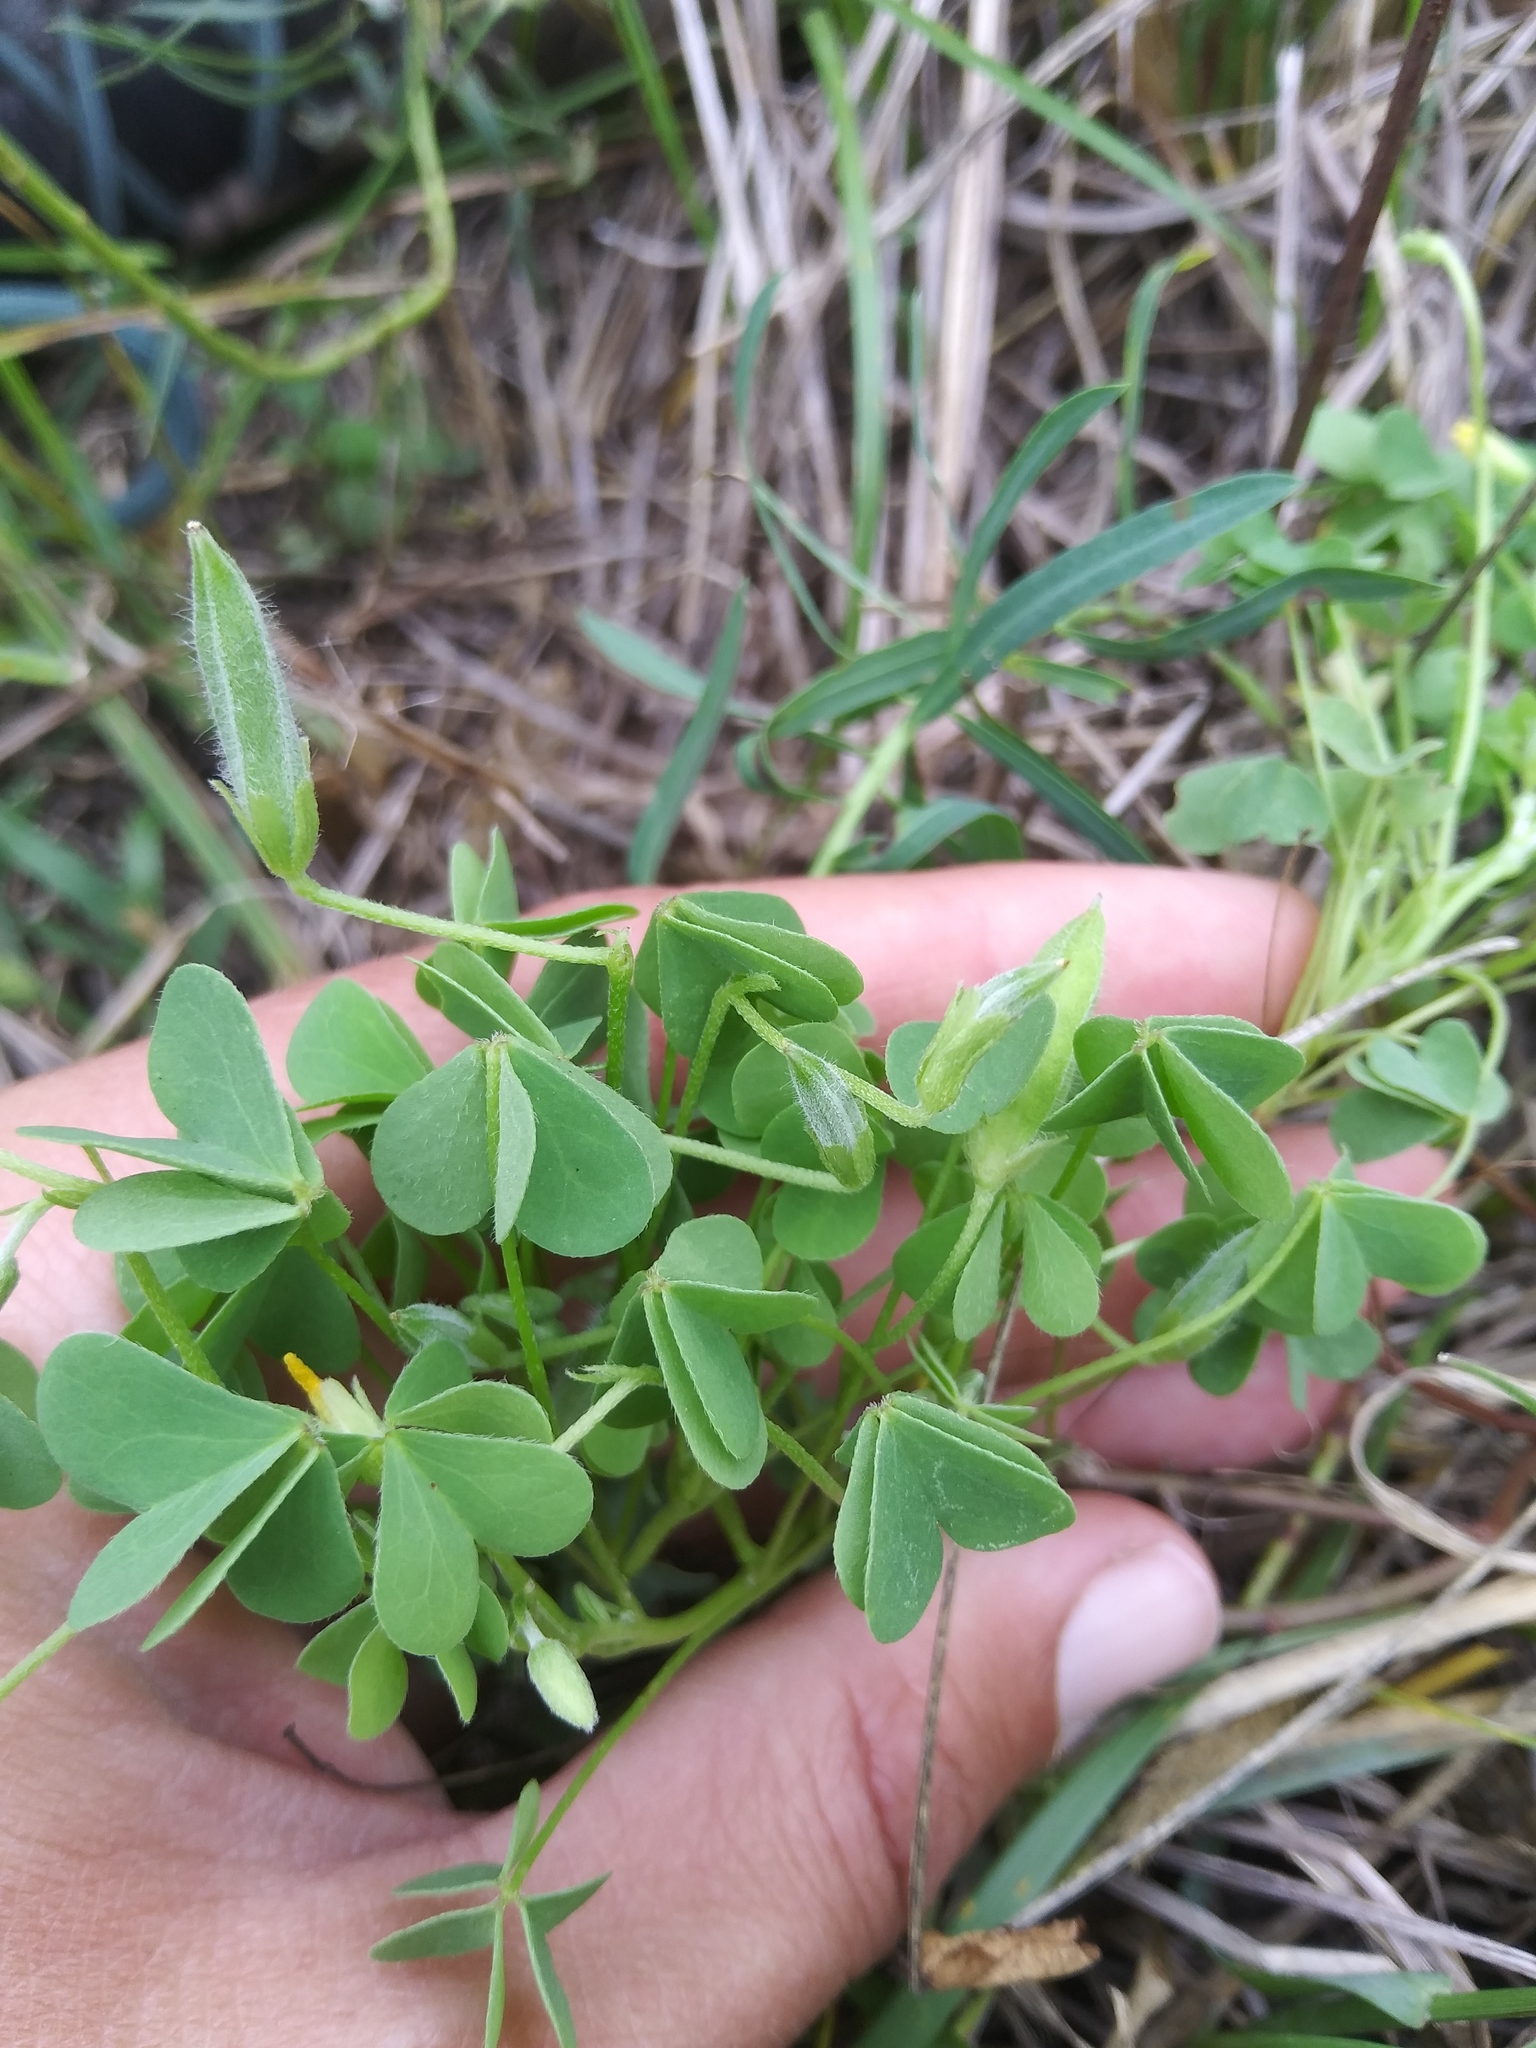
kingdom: Plantae
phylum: Tracheophyta
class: Magnoliopsida
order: Oxalidales
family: Oxalidaceae
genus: Oxalis
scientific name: Oxalis corniculata
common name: Procumbent yellow-sorrel
